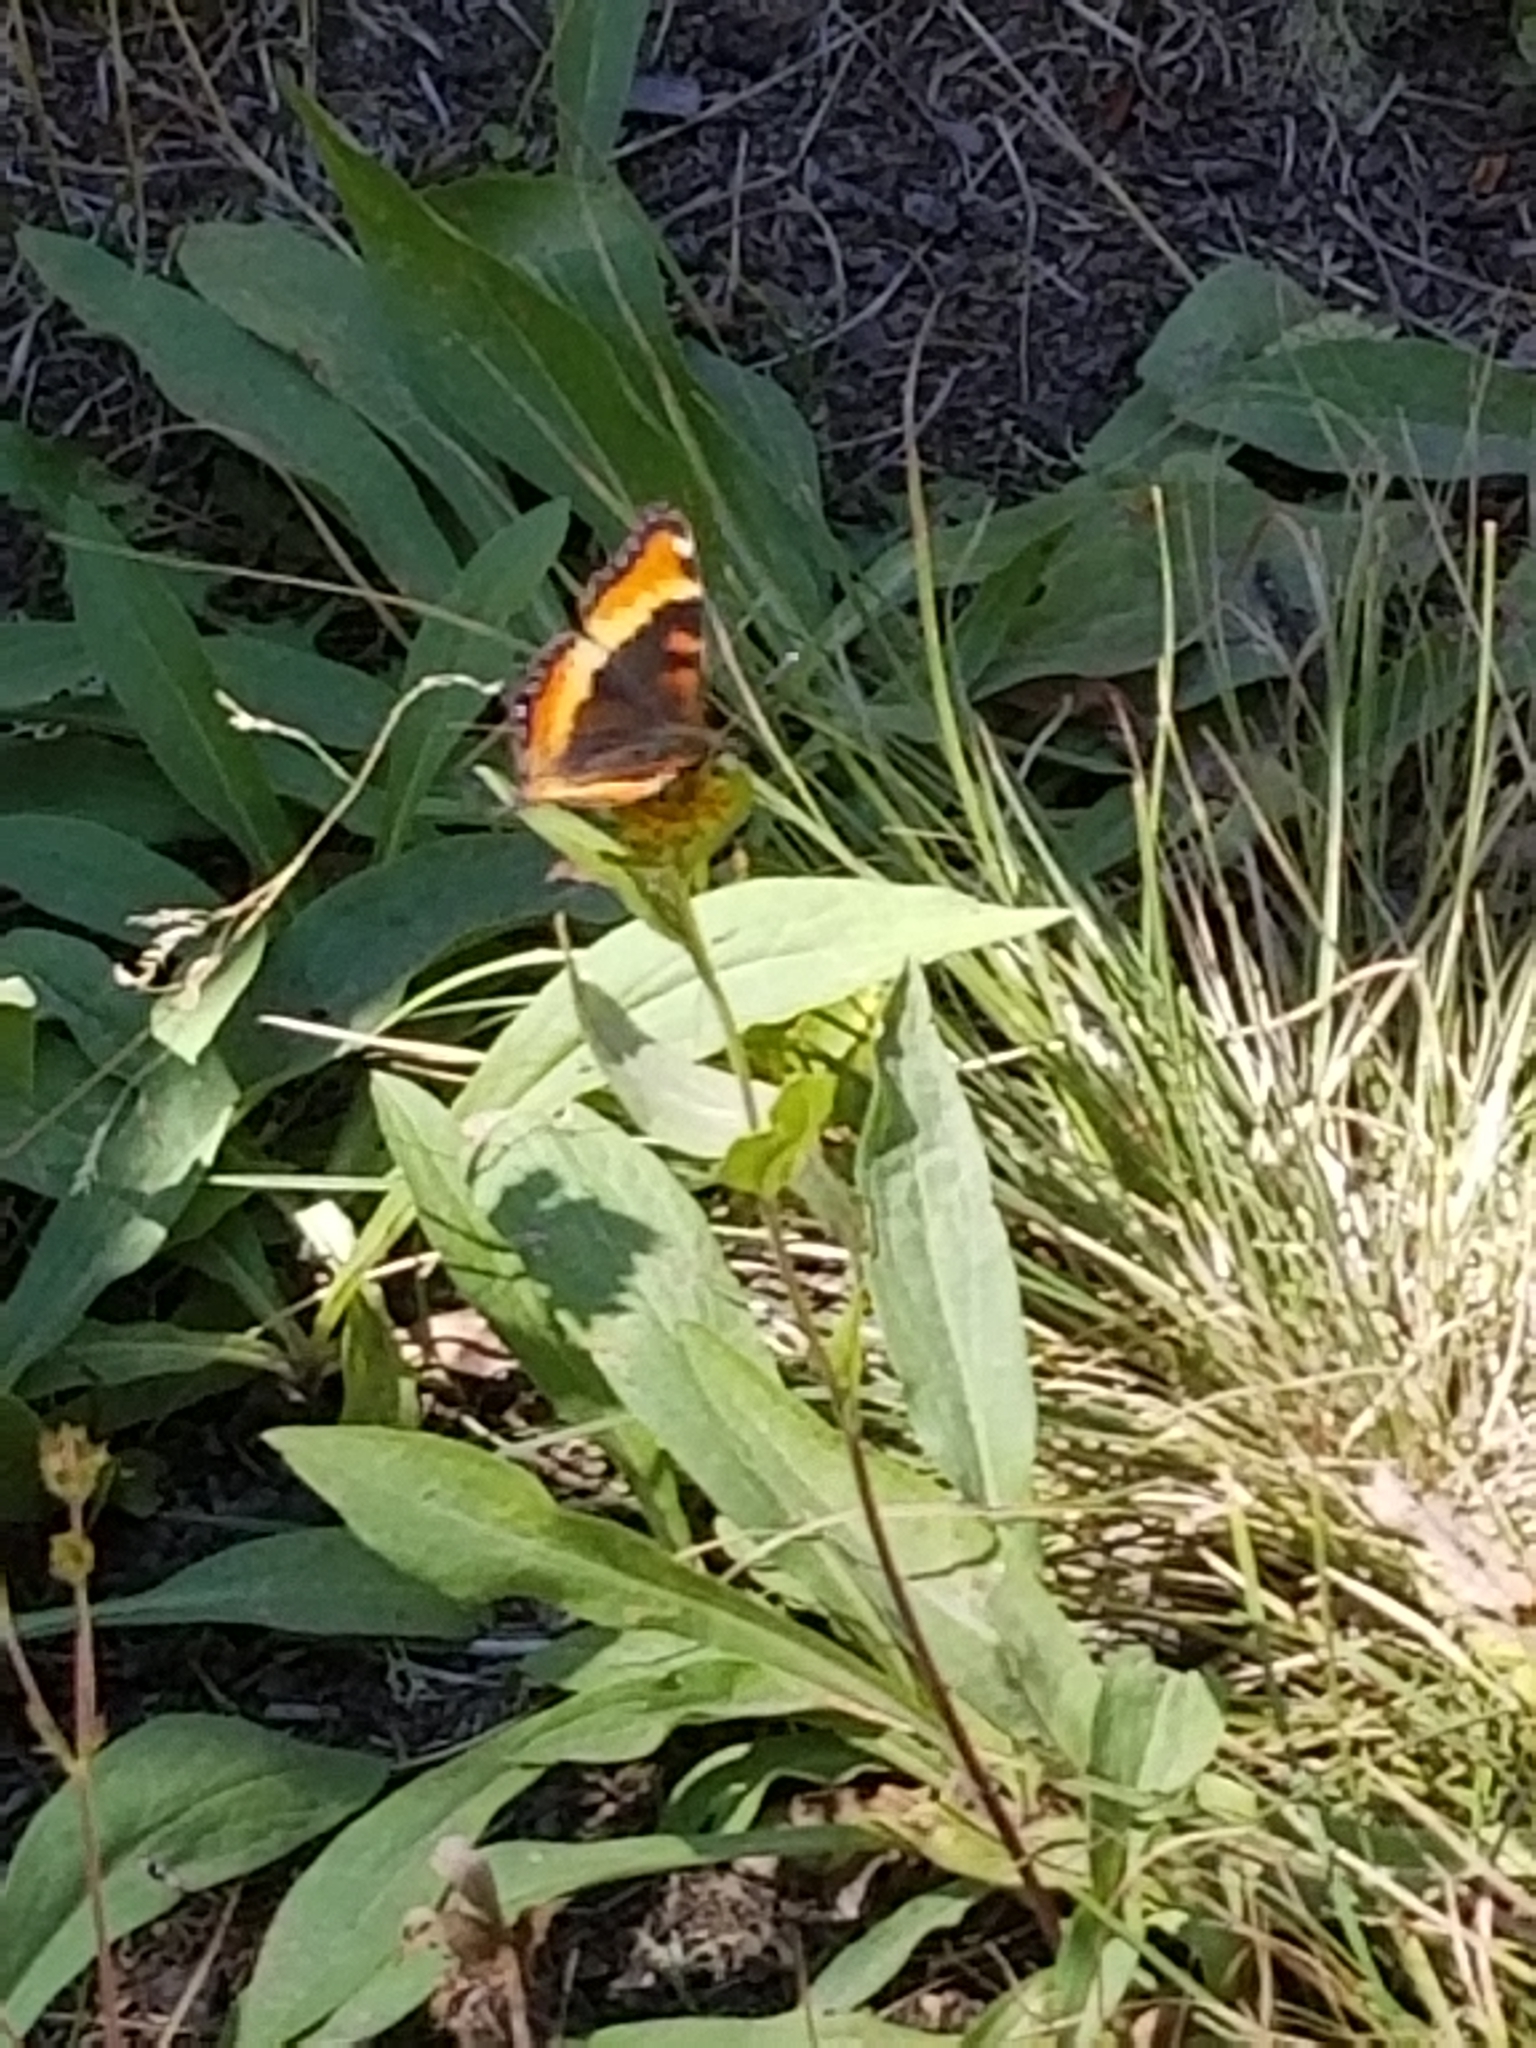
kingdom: Animalia
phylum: Arthropoda
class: Insecta
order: Lepidoptera
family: Nymphalidae
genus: Aglais
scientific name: Aglais milberti
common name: Milbert's tortoiseshell
